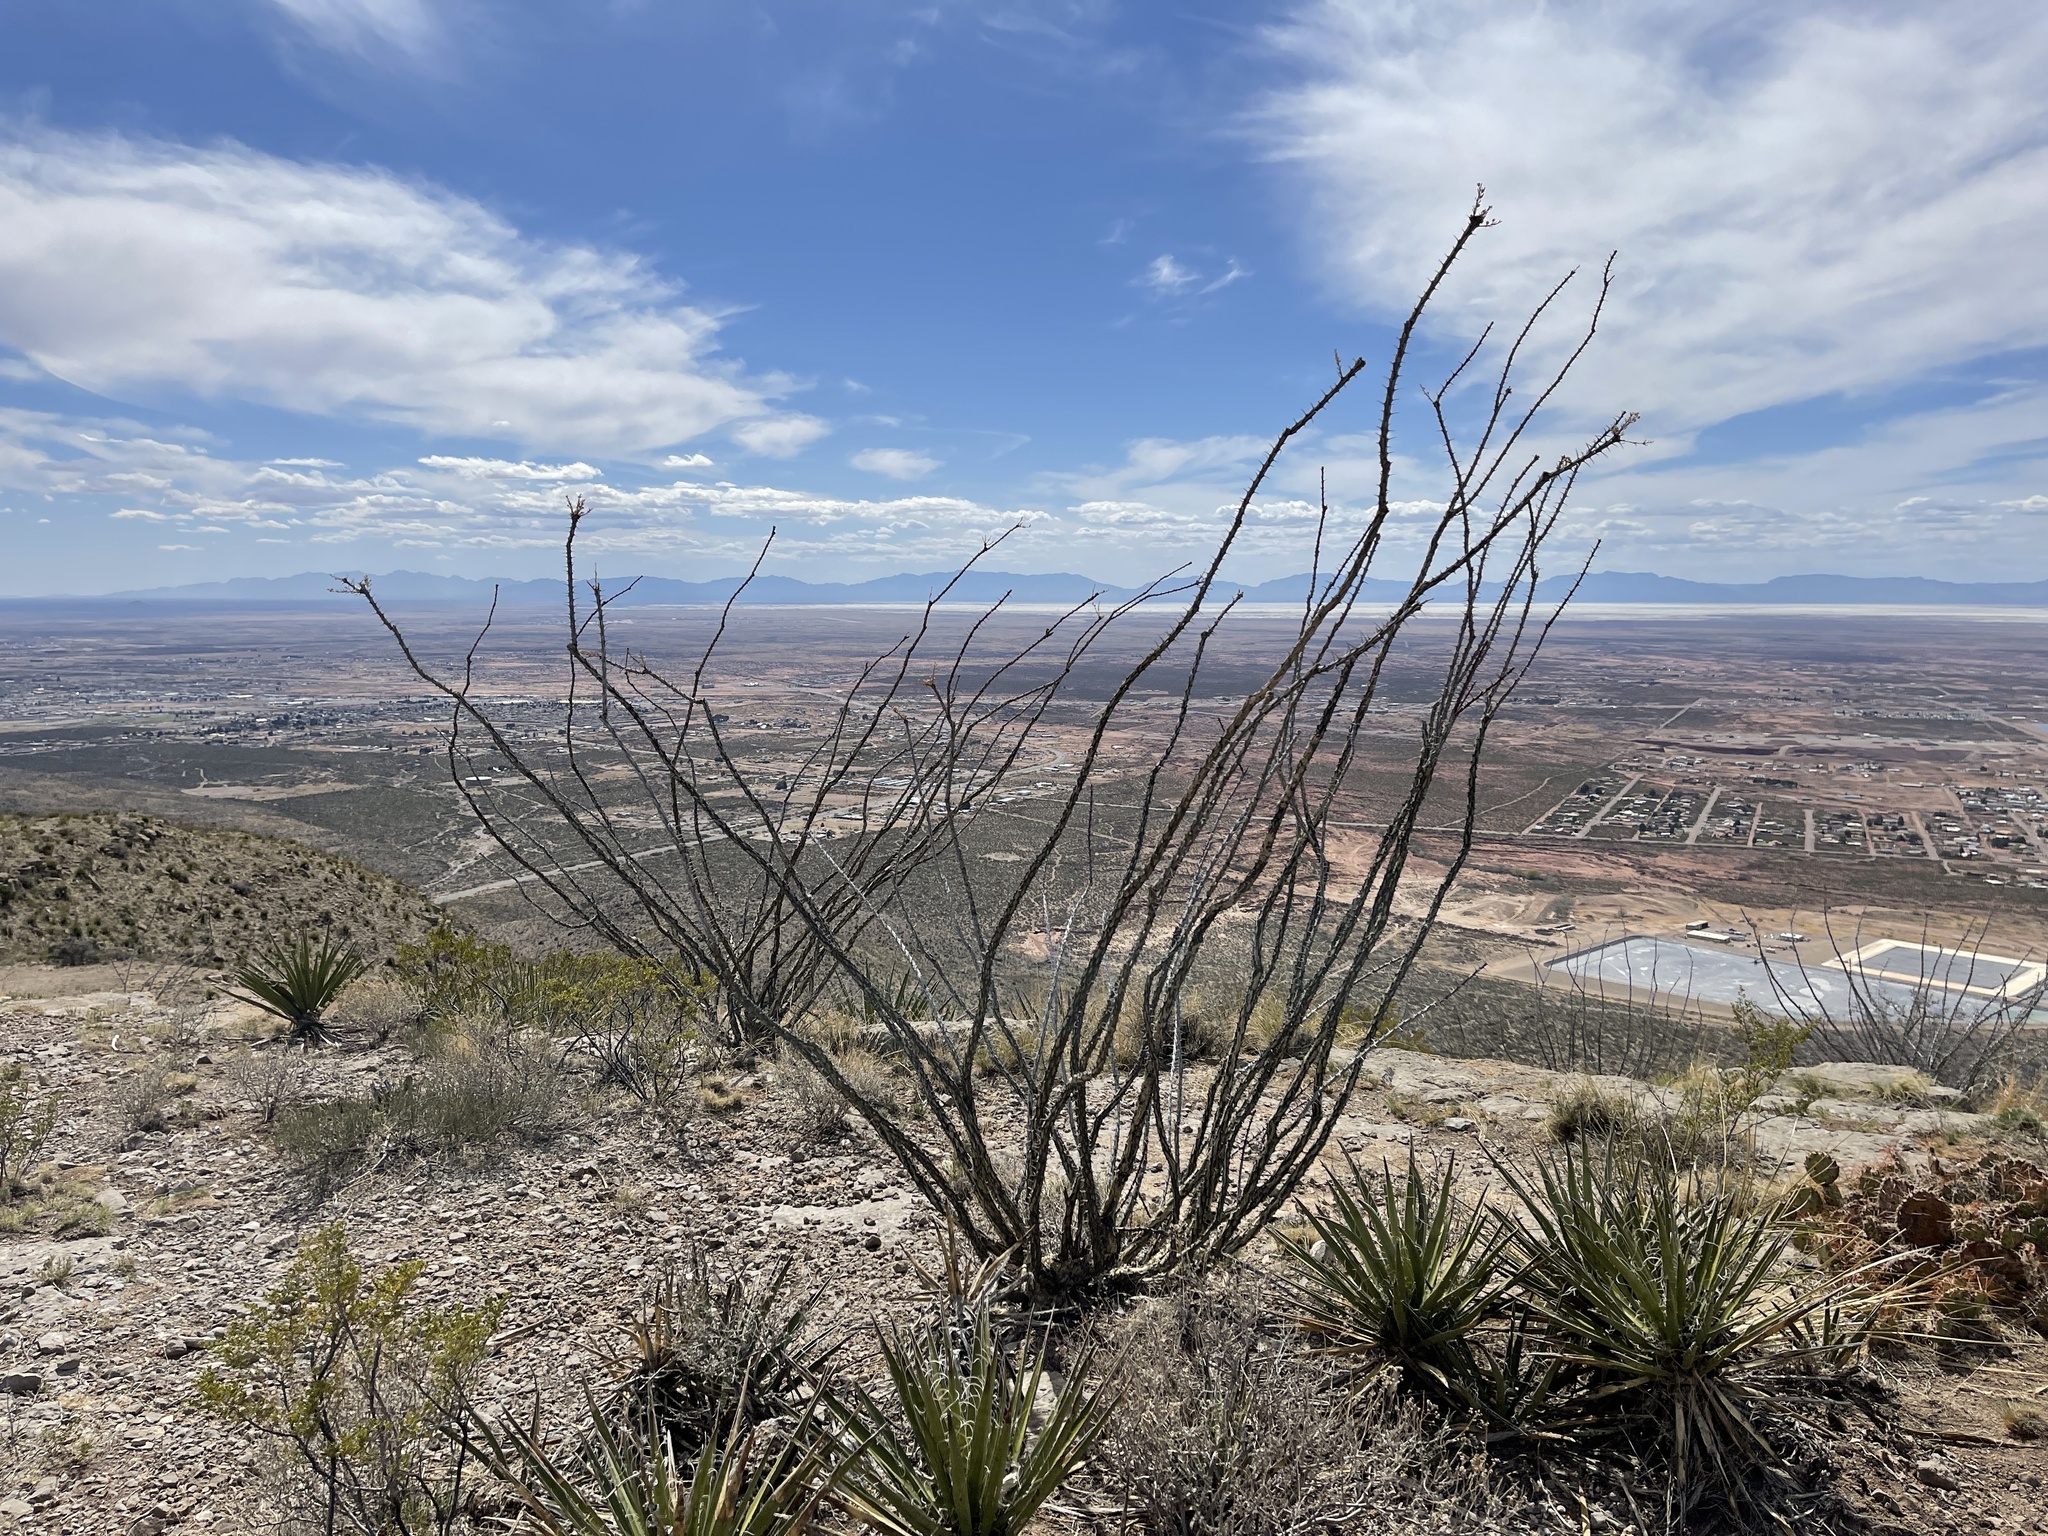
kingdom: Plantae
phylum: Tracheophyta
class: Magnoliopsida
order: Ericales
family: Fouquieriaceae
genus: Fouquieria
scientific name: Fouquieria splendens
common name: Vine-cactus
